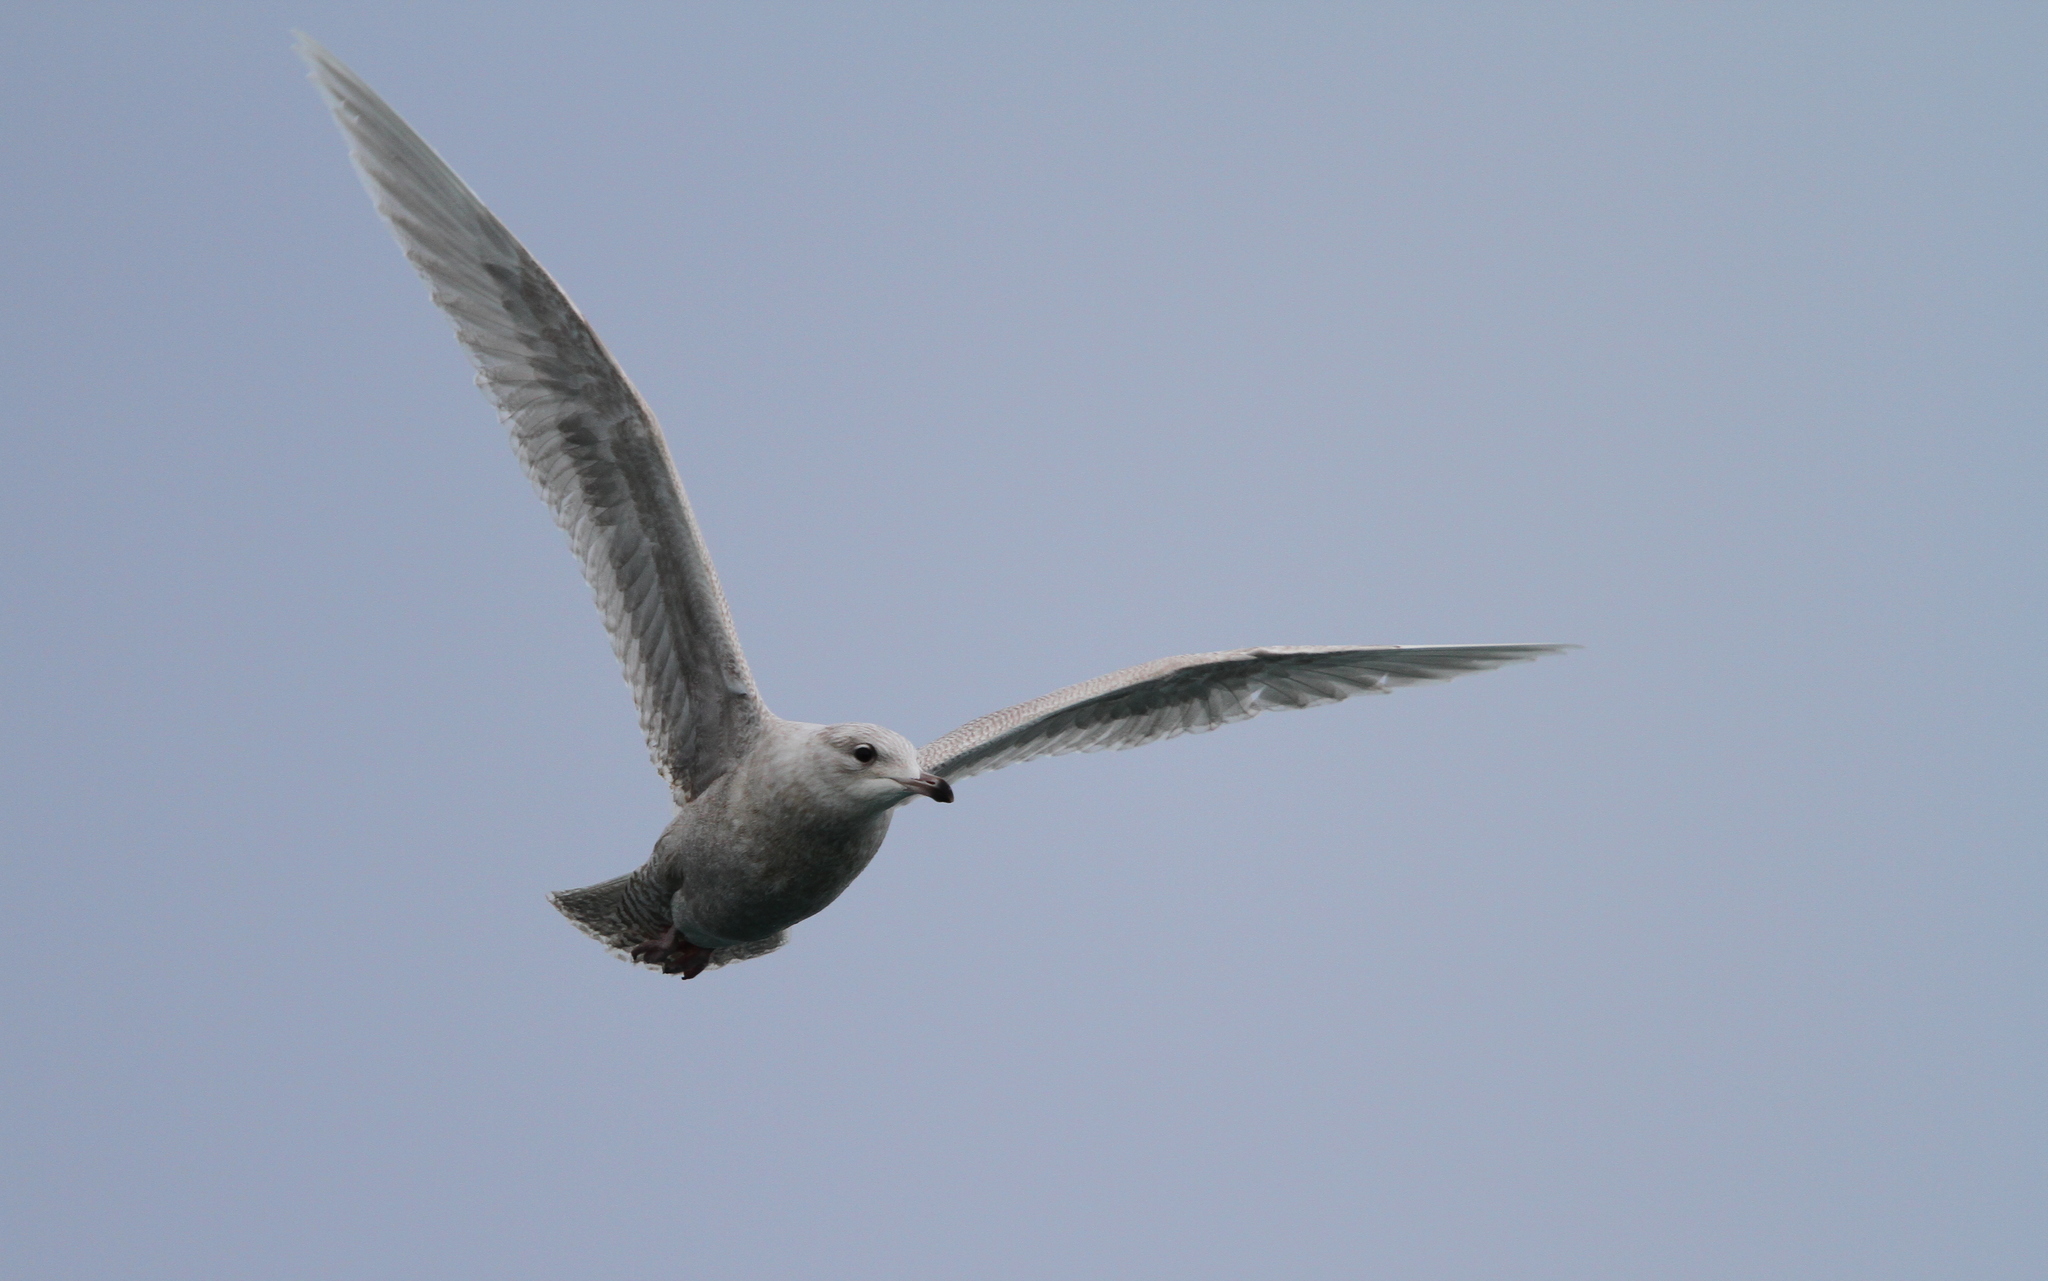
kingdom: Animalia
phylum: Chordata
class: Aves
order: Charadriiformes
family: Laridae
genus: Larus
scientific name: Larus hyperboreus
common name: Glaucous gull
